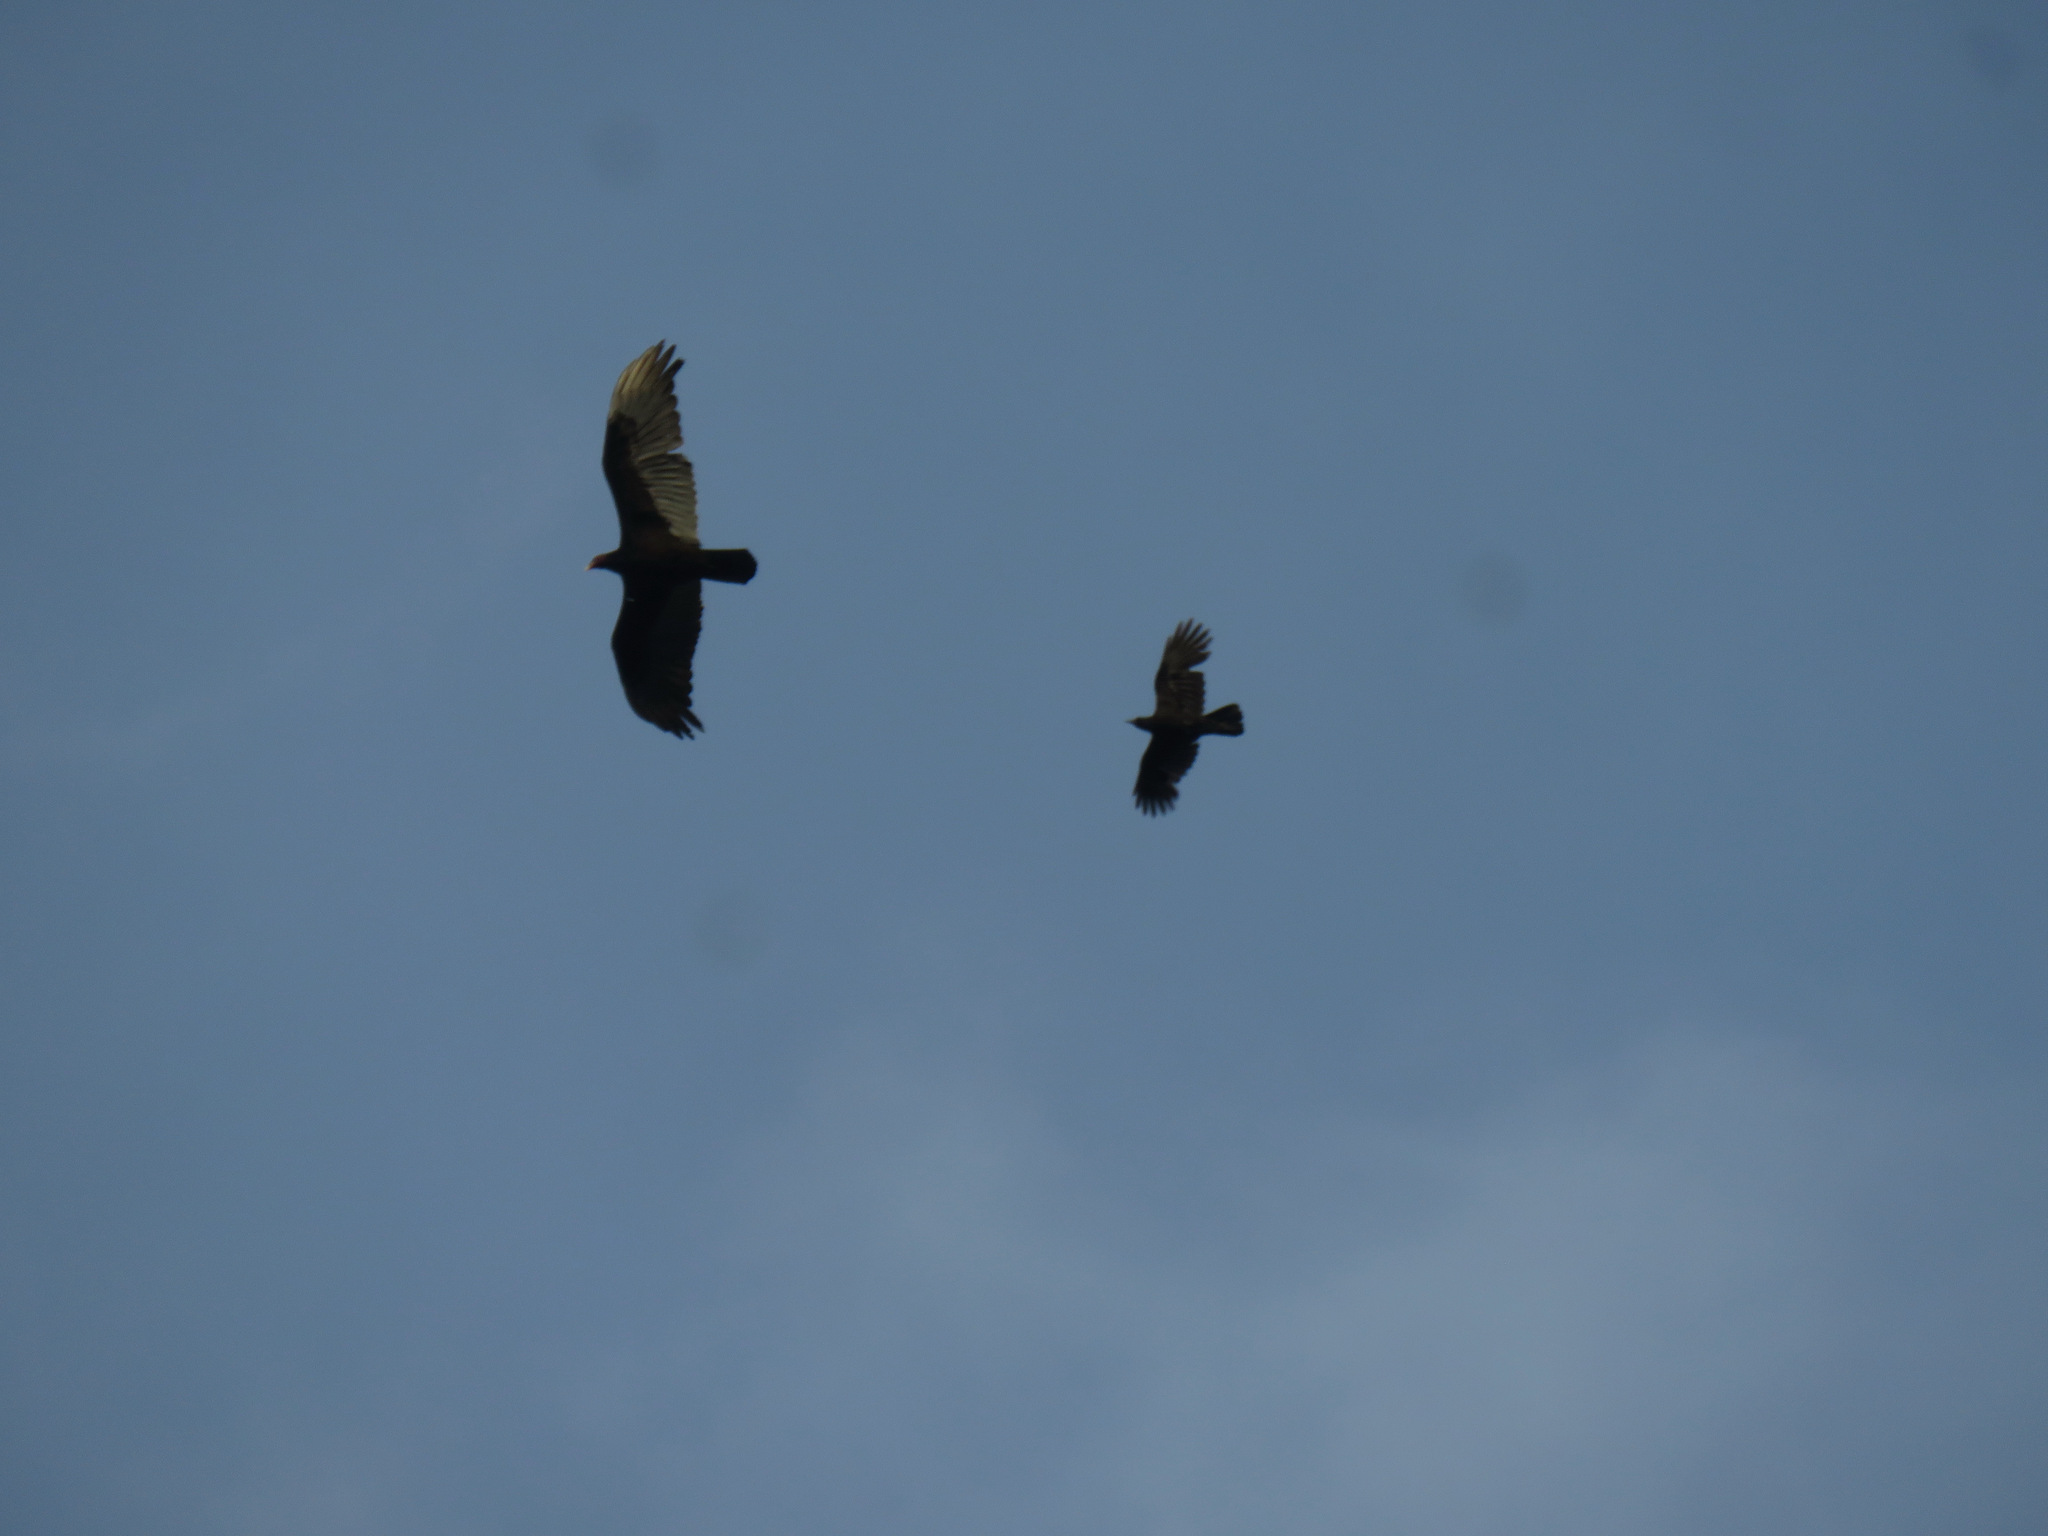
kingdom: Animalia
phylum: Chordata
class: Aves
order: Accipitriformes
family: Cathartidae
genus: Cathartes
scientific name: Cathartes aura
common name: Turkey vulture
